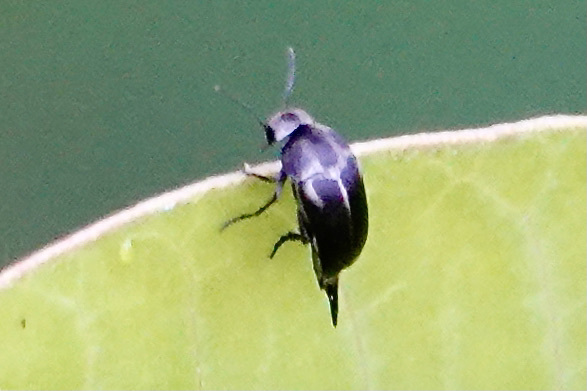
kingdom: Animalia
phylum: Arthropoda
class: Insecta
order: Coleoptera
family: Mordellidae
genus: Mordella
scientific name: Mordella lunulata
